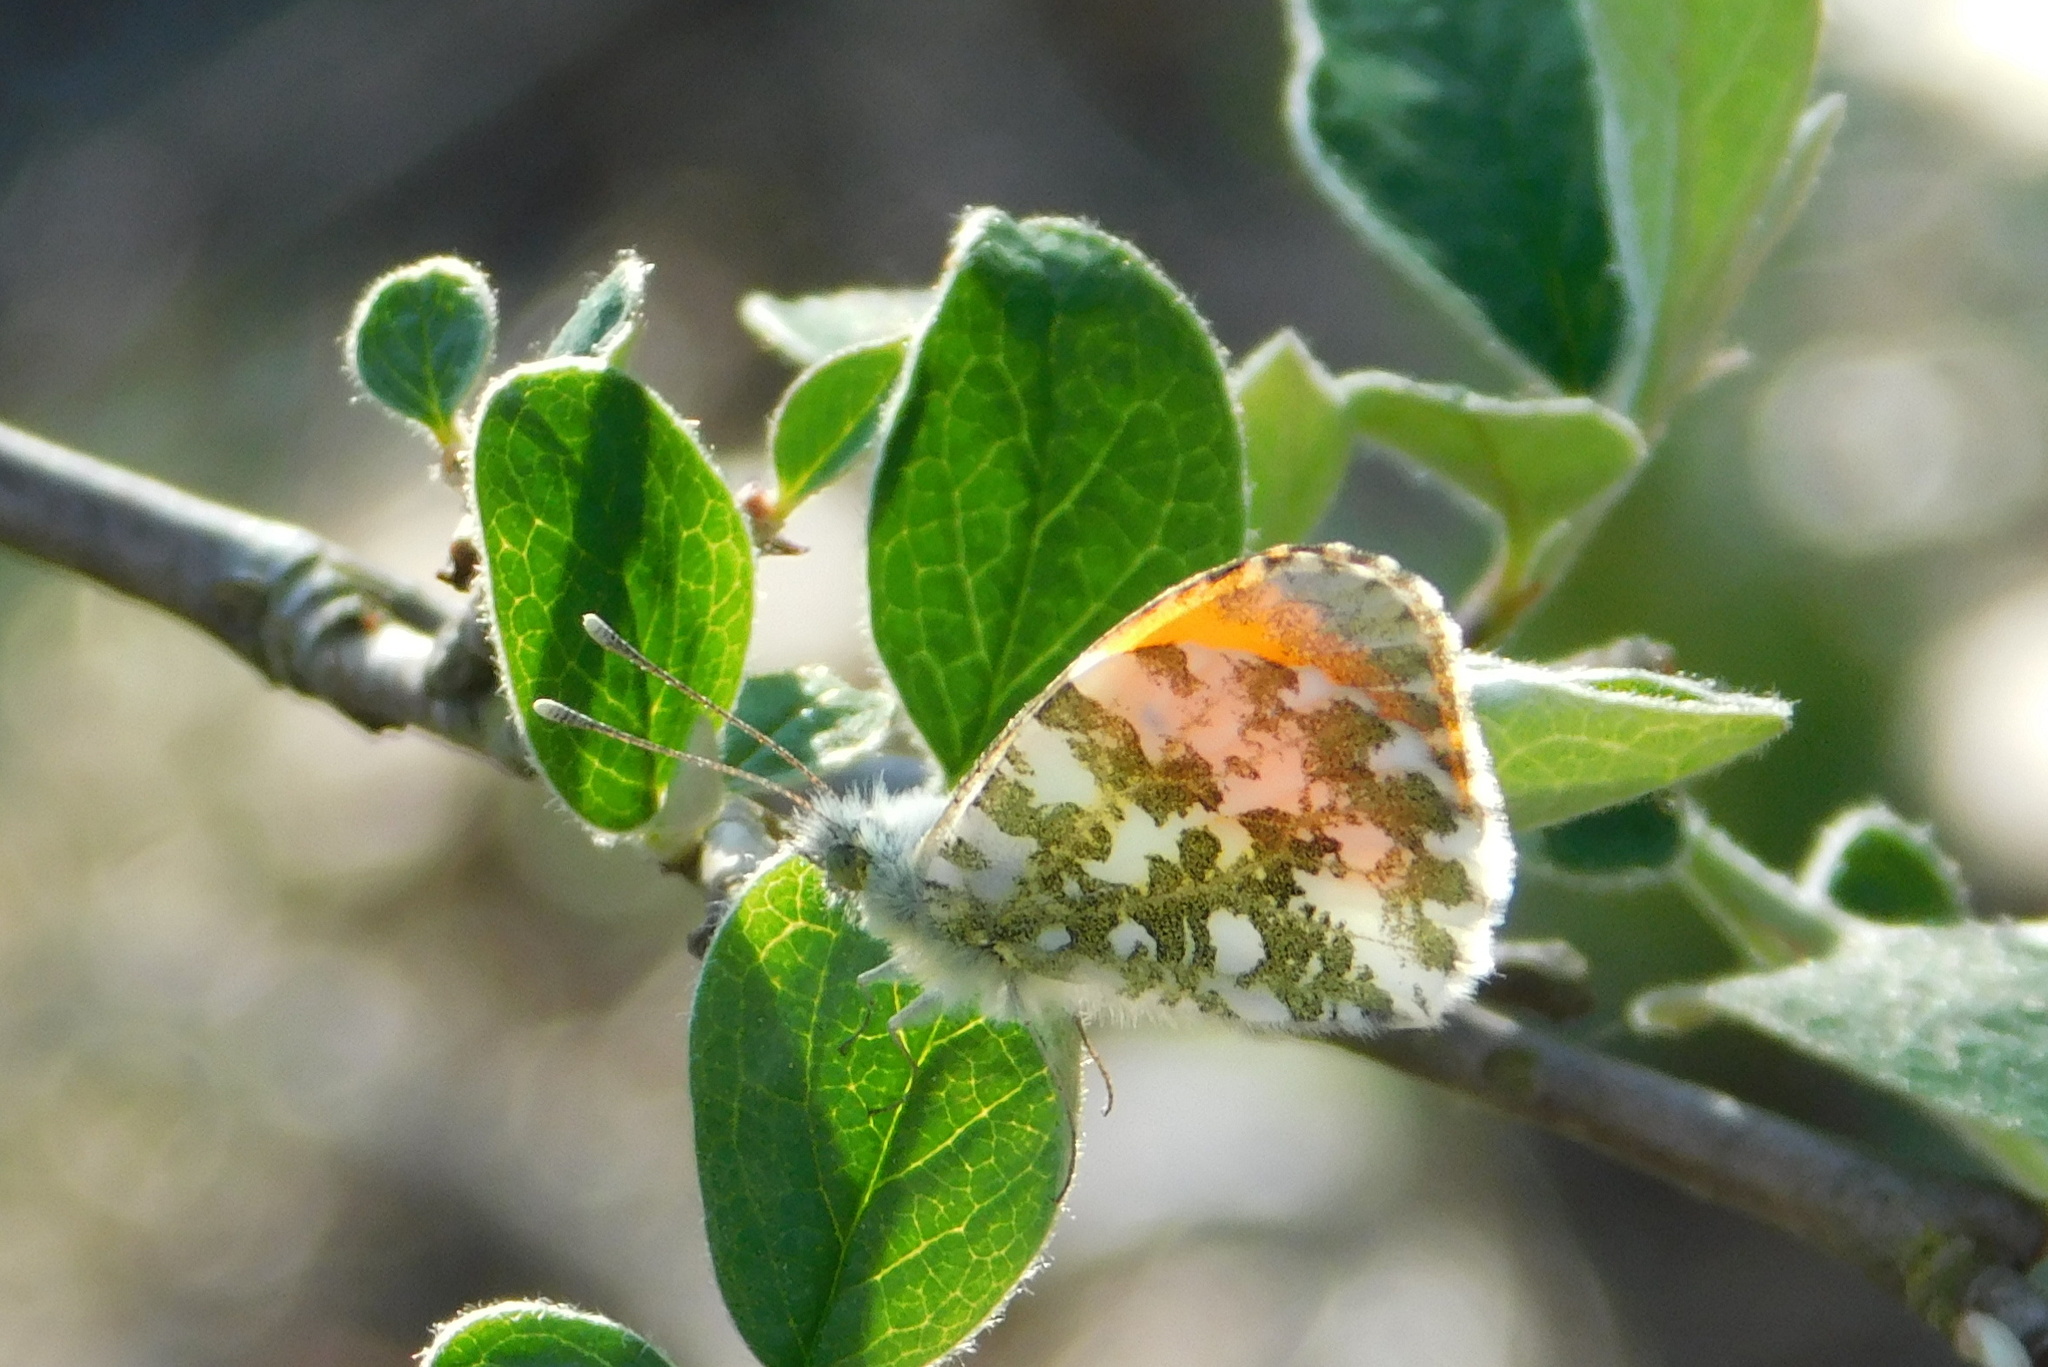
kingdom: Animalia
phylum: Arthropoda
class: Insecta
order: Lepidoptera
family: Pieridae
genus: Anthocharis
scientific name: Anthocharis cardamines
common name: Orange-tip
